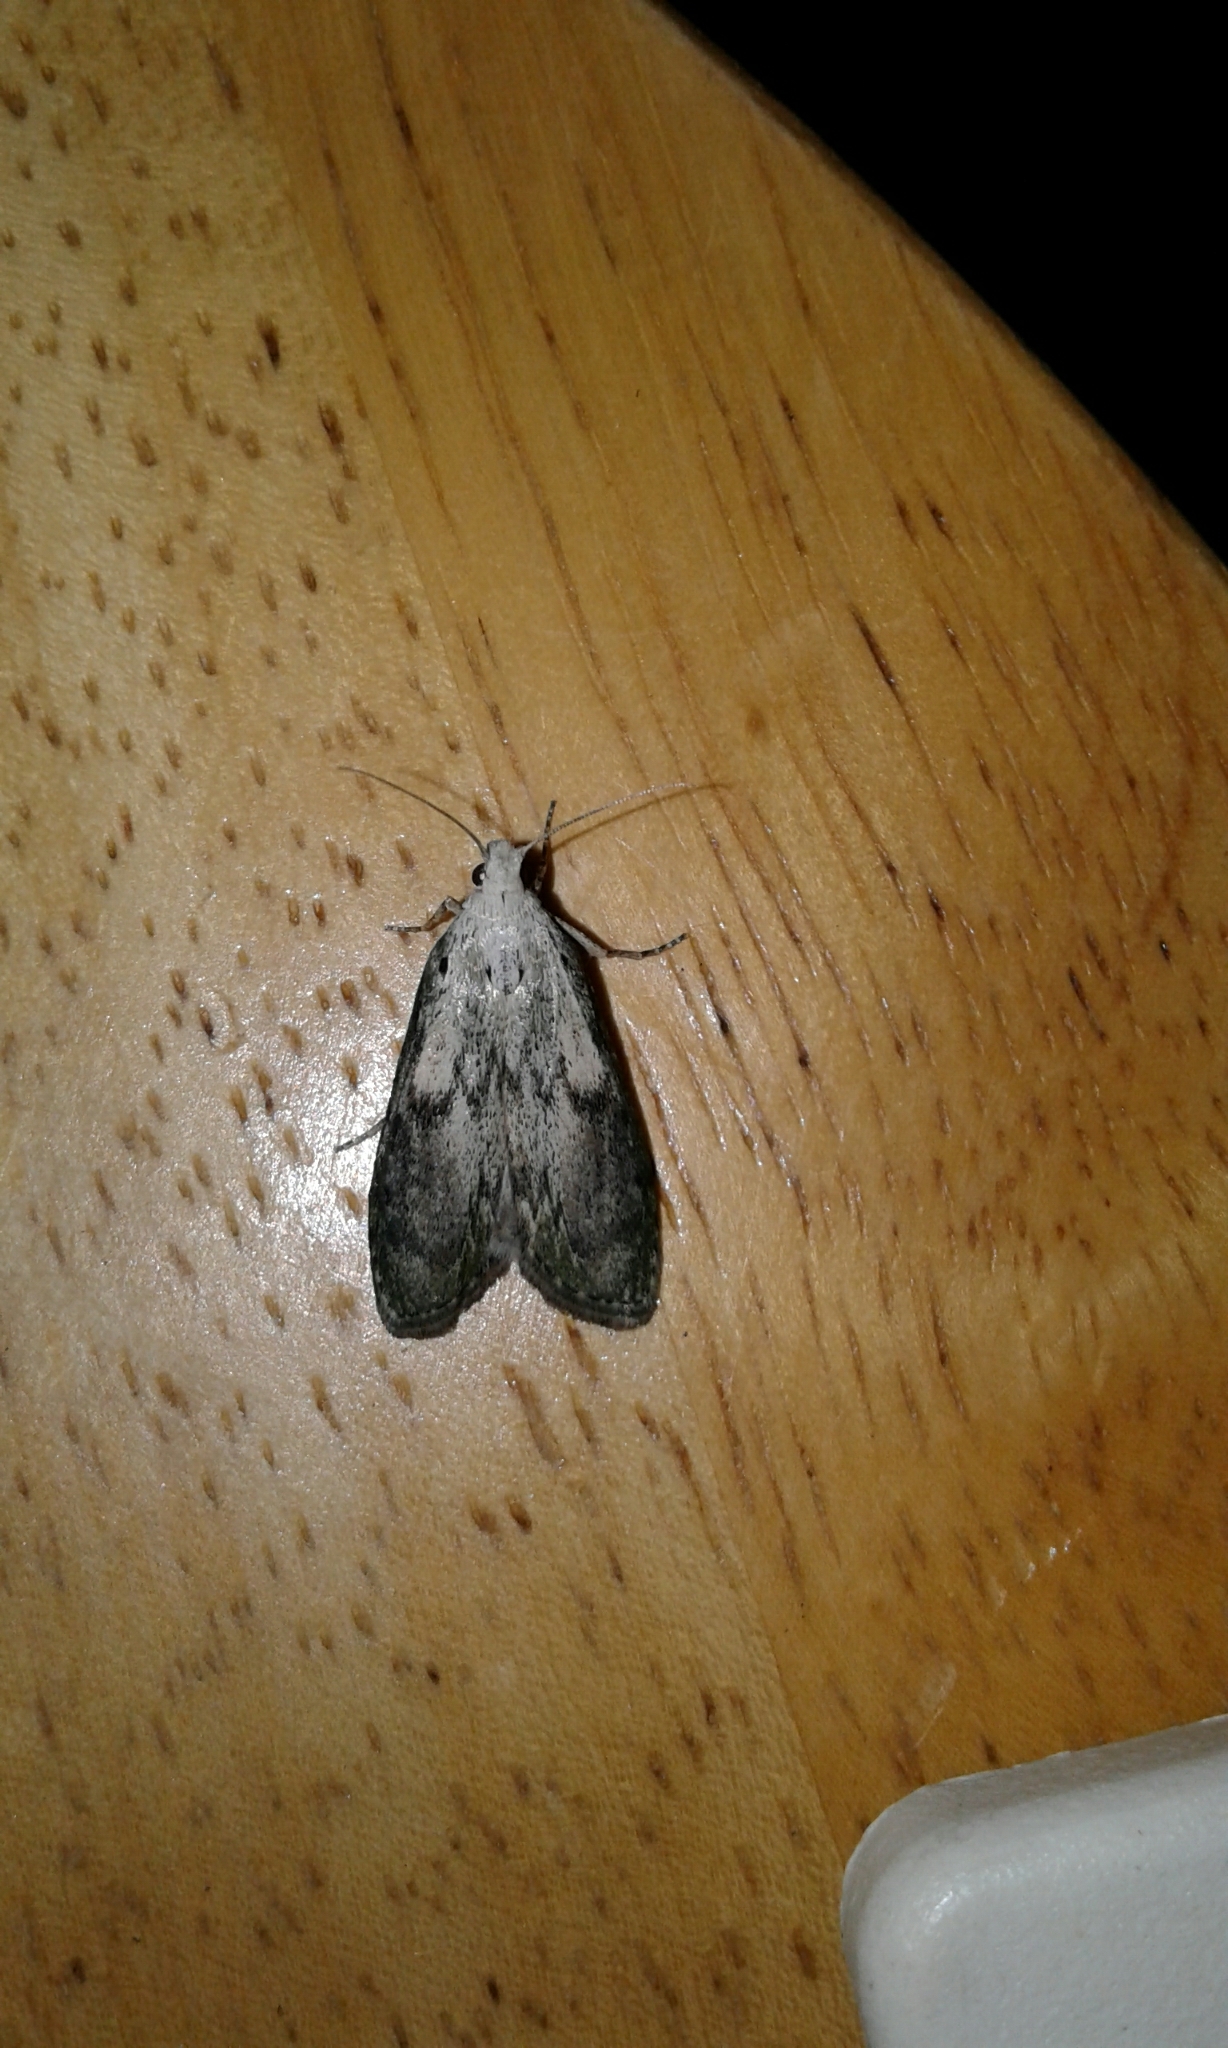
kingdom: Animalia
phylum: Arthropoda
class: Insecta
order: Lepidoptera
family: Pyralidae
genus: Aphomia
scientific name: Aphomia sociella
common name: Bee moth
